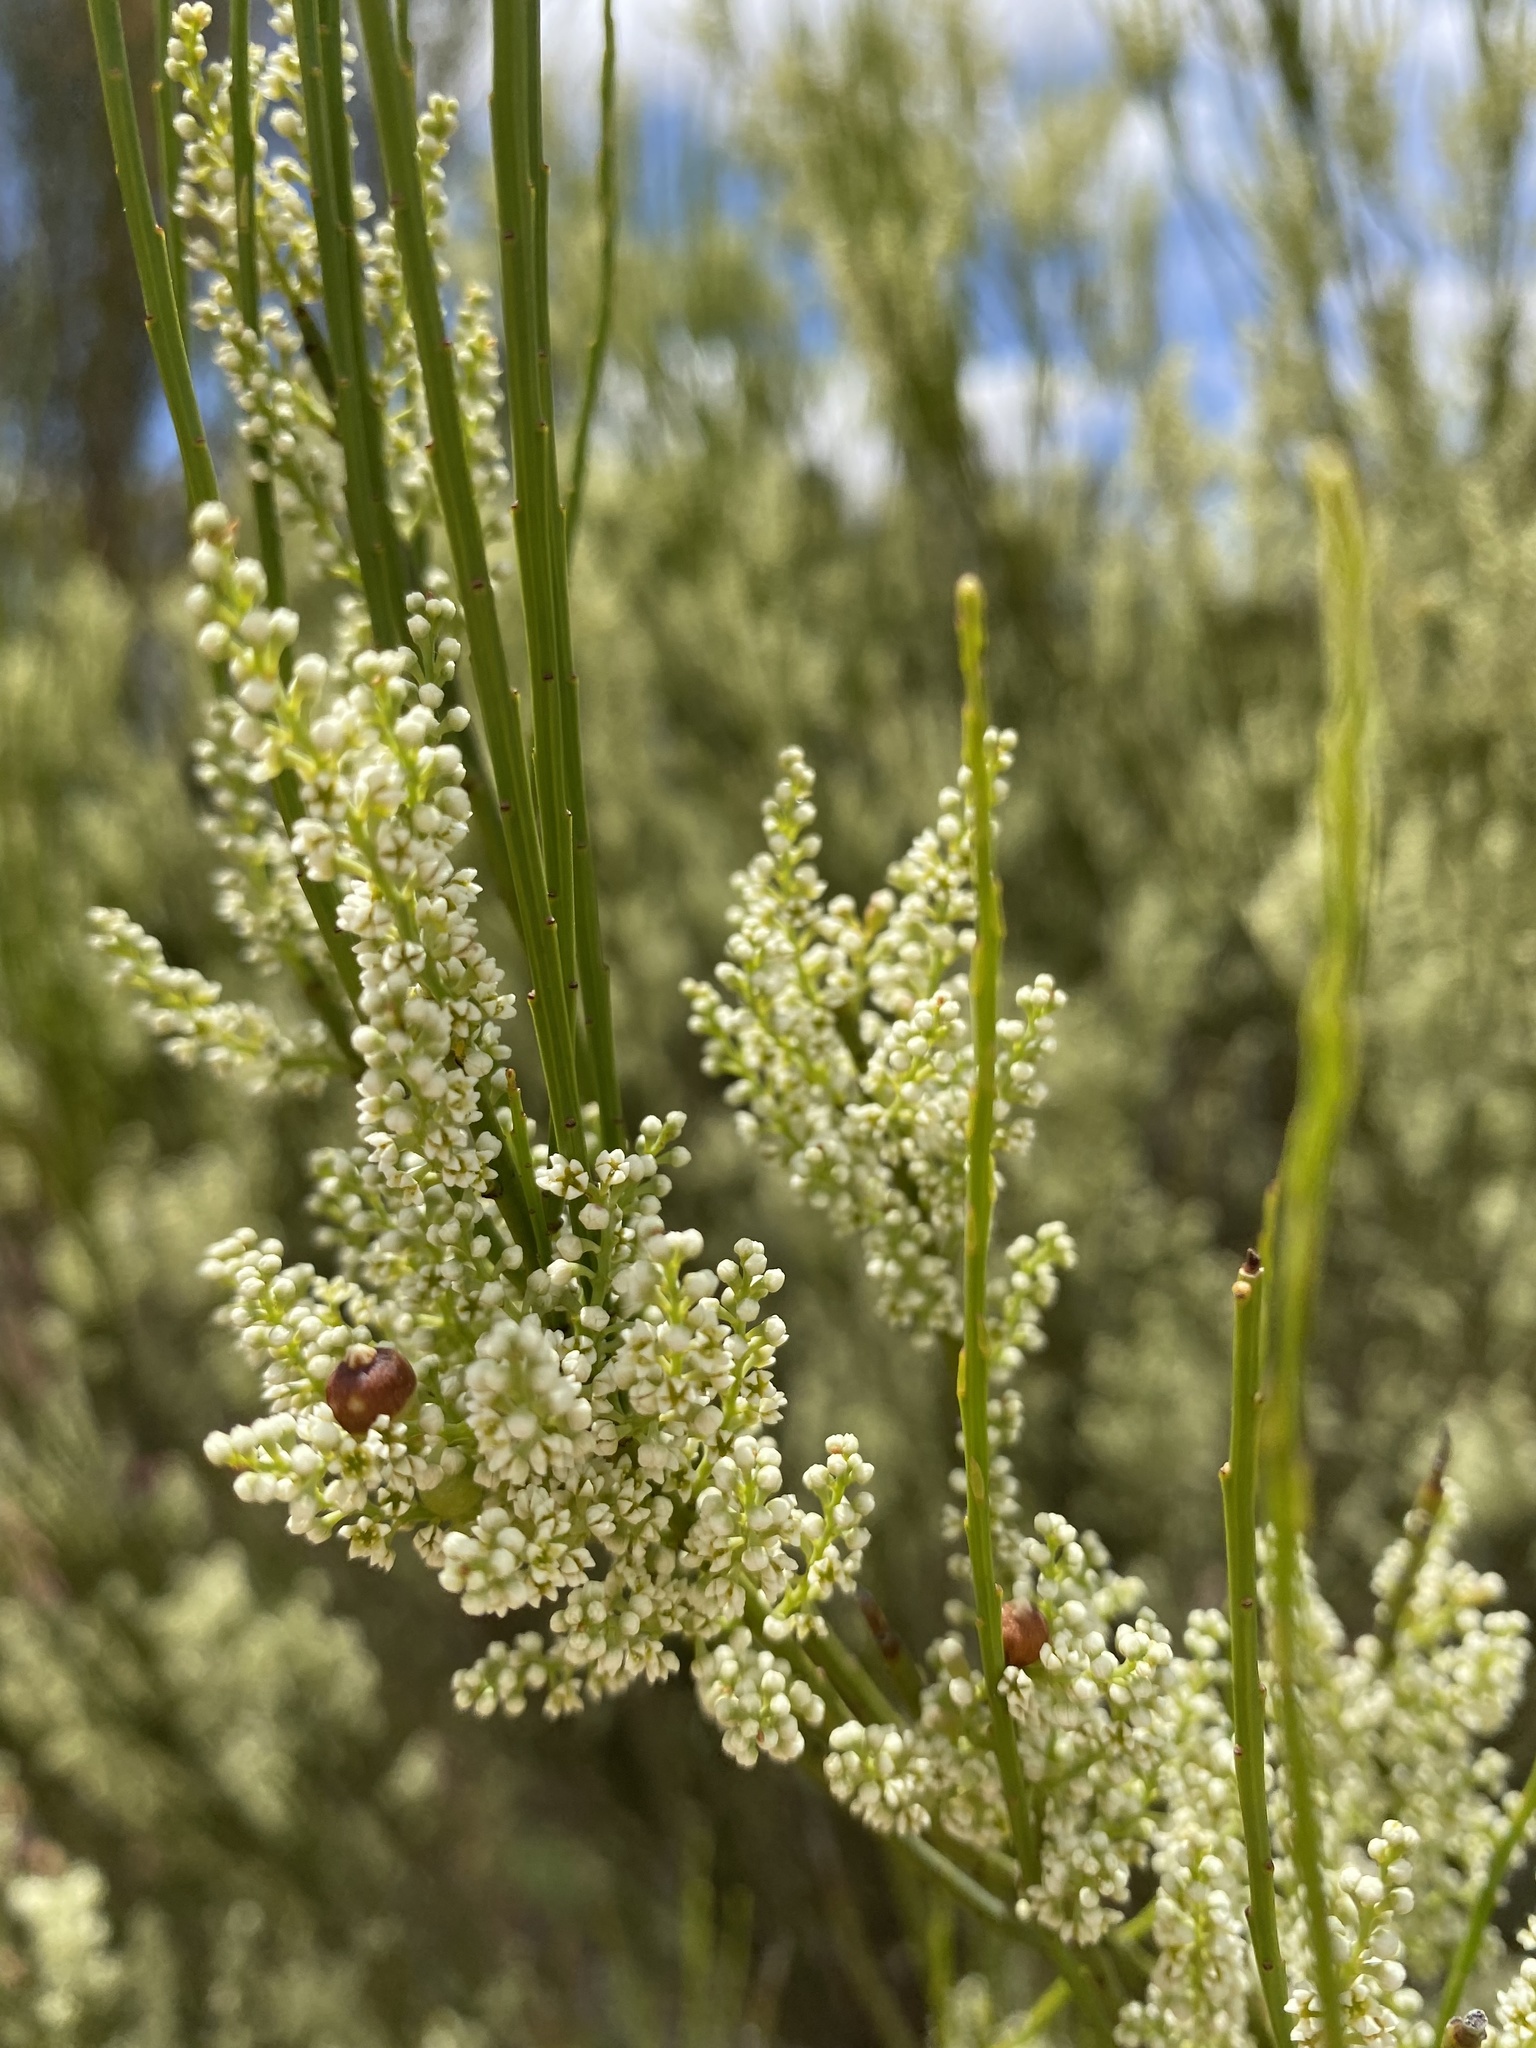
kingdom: Plantae
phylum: Tracheophyta
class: Magnoliopsida
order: Santalales
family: Amphorogynaceae
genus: Leptomeria
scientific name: Leptomeria preissiana
